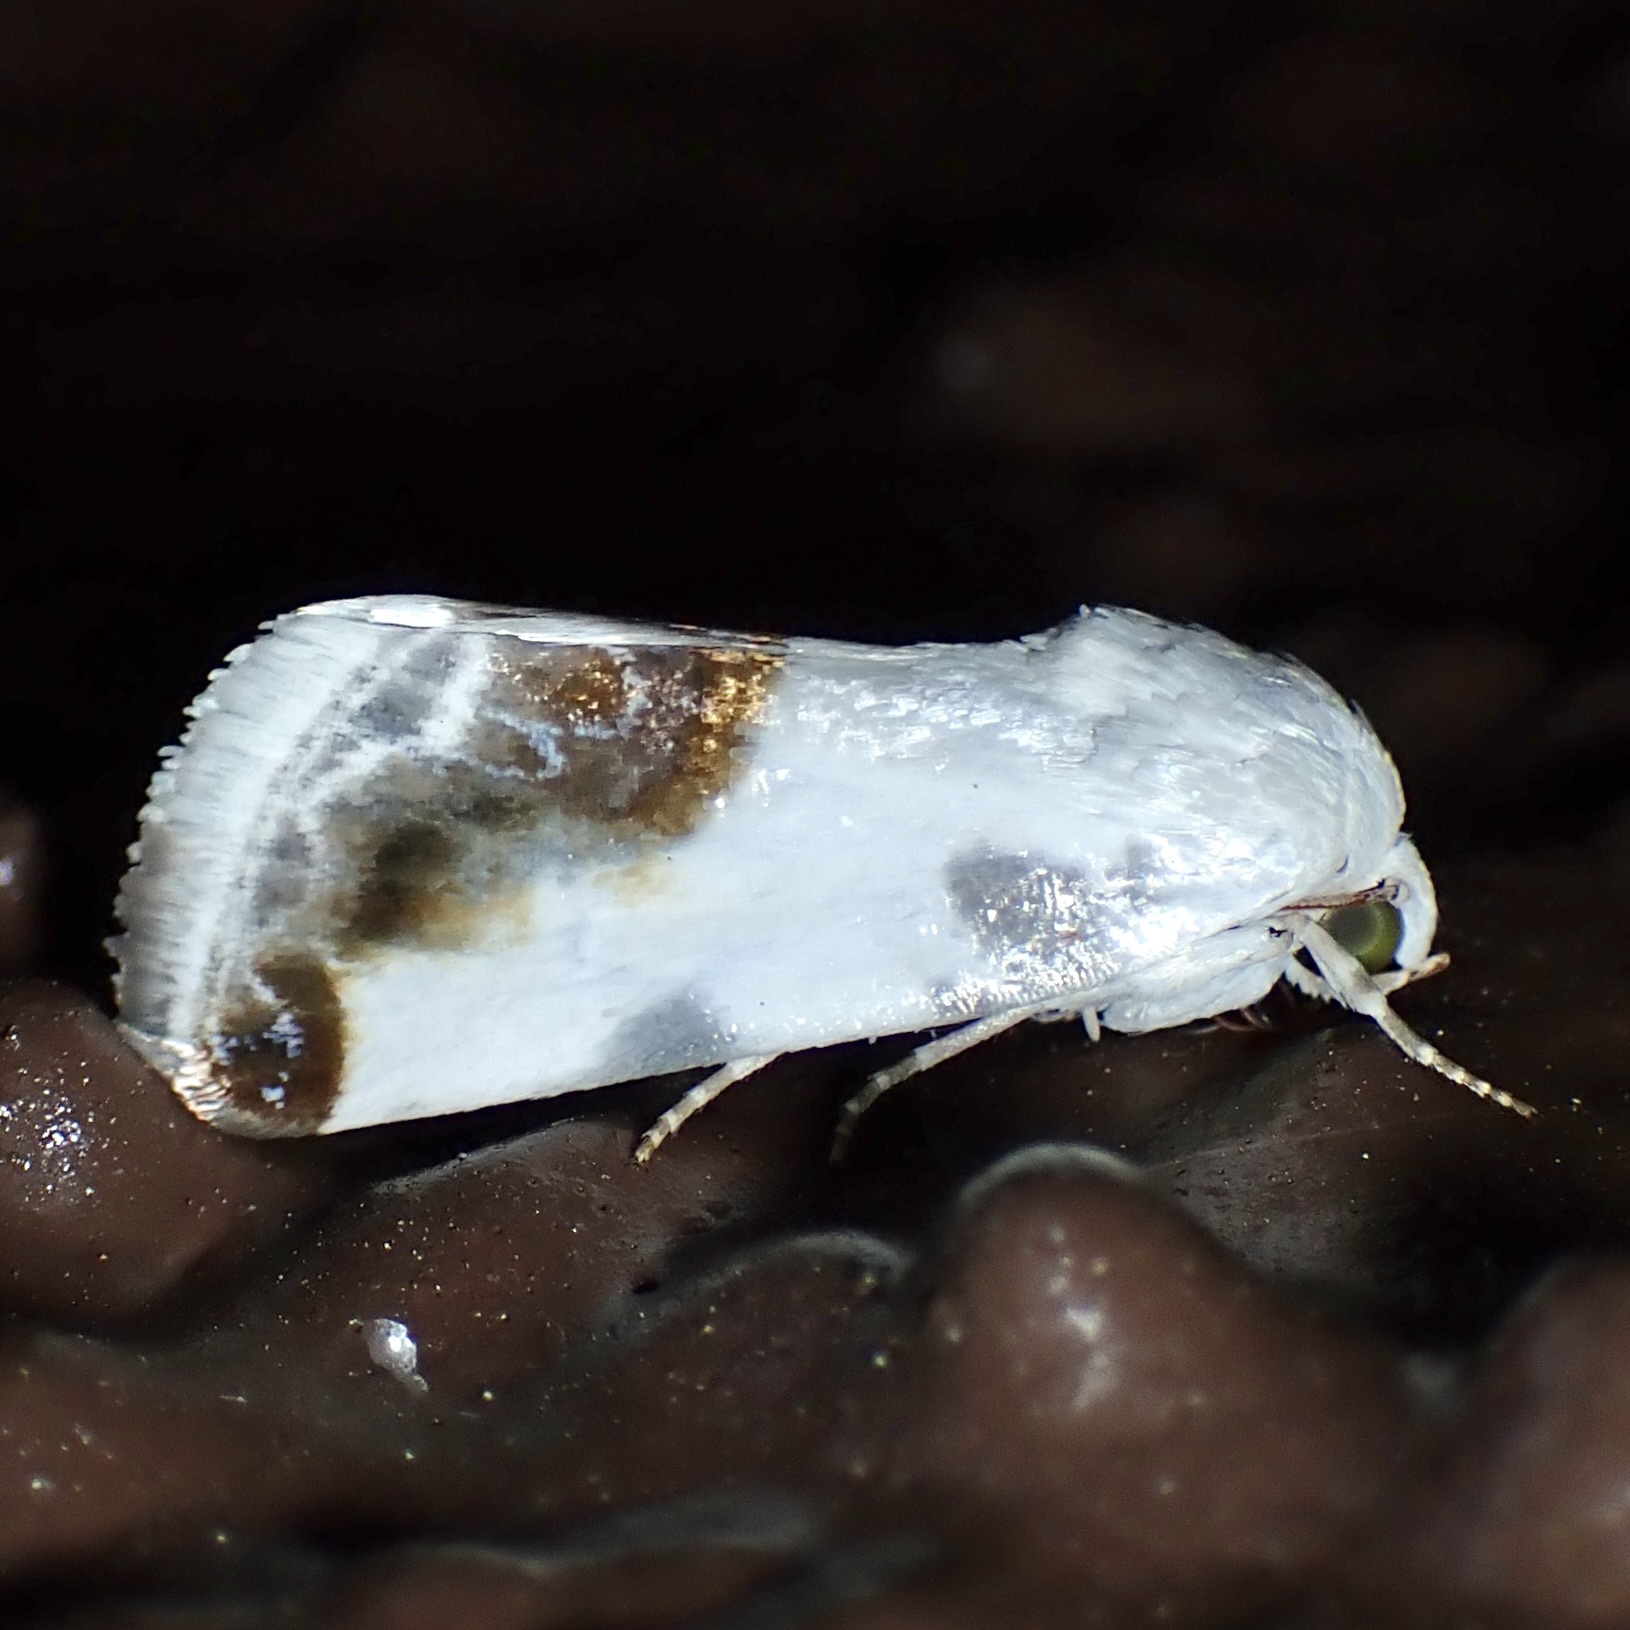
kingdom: Animalia
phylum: Arthropoda
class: Insecta
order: Lepidoptera
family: Noctuidae
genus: Acontia
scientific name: Acontia chea
